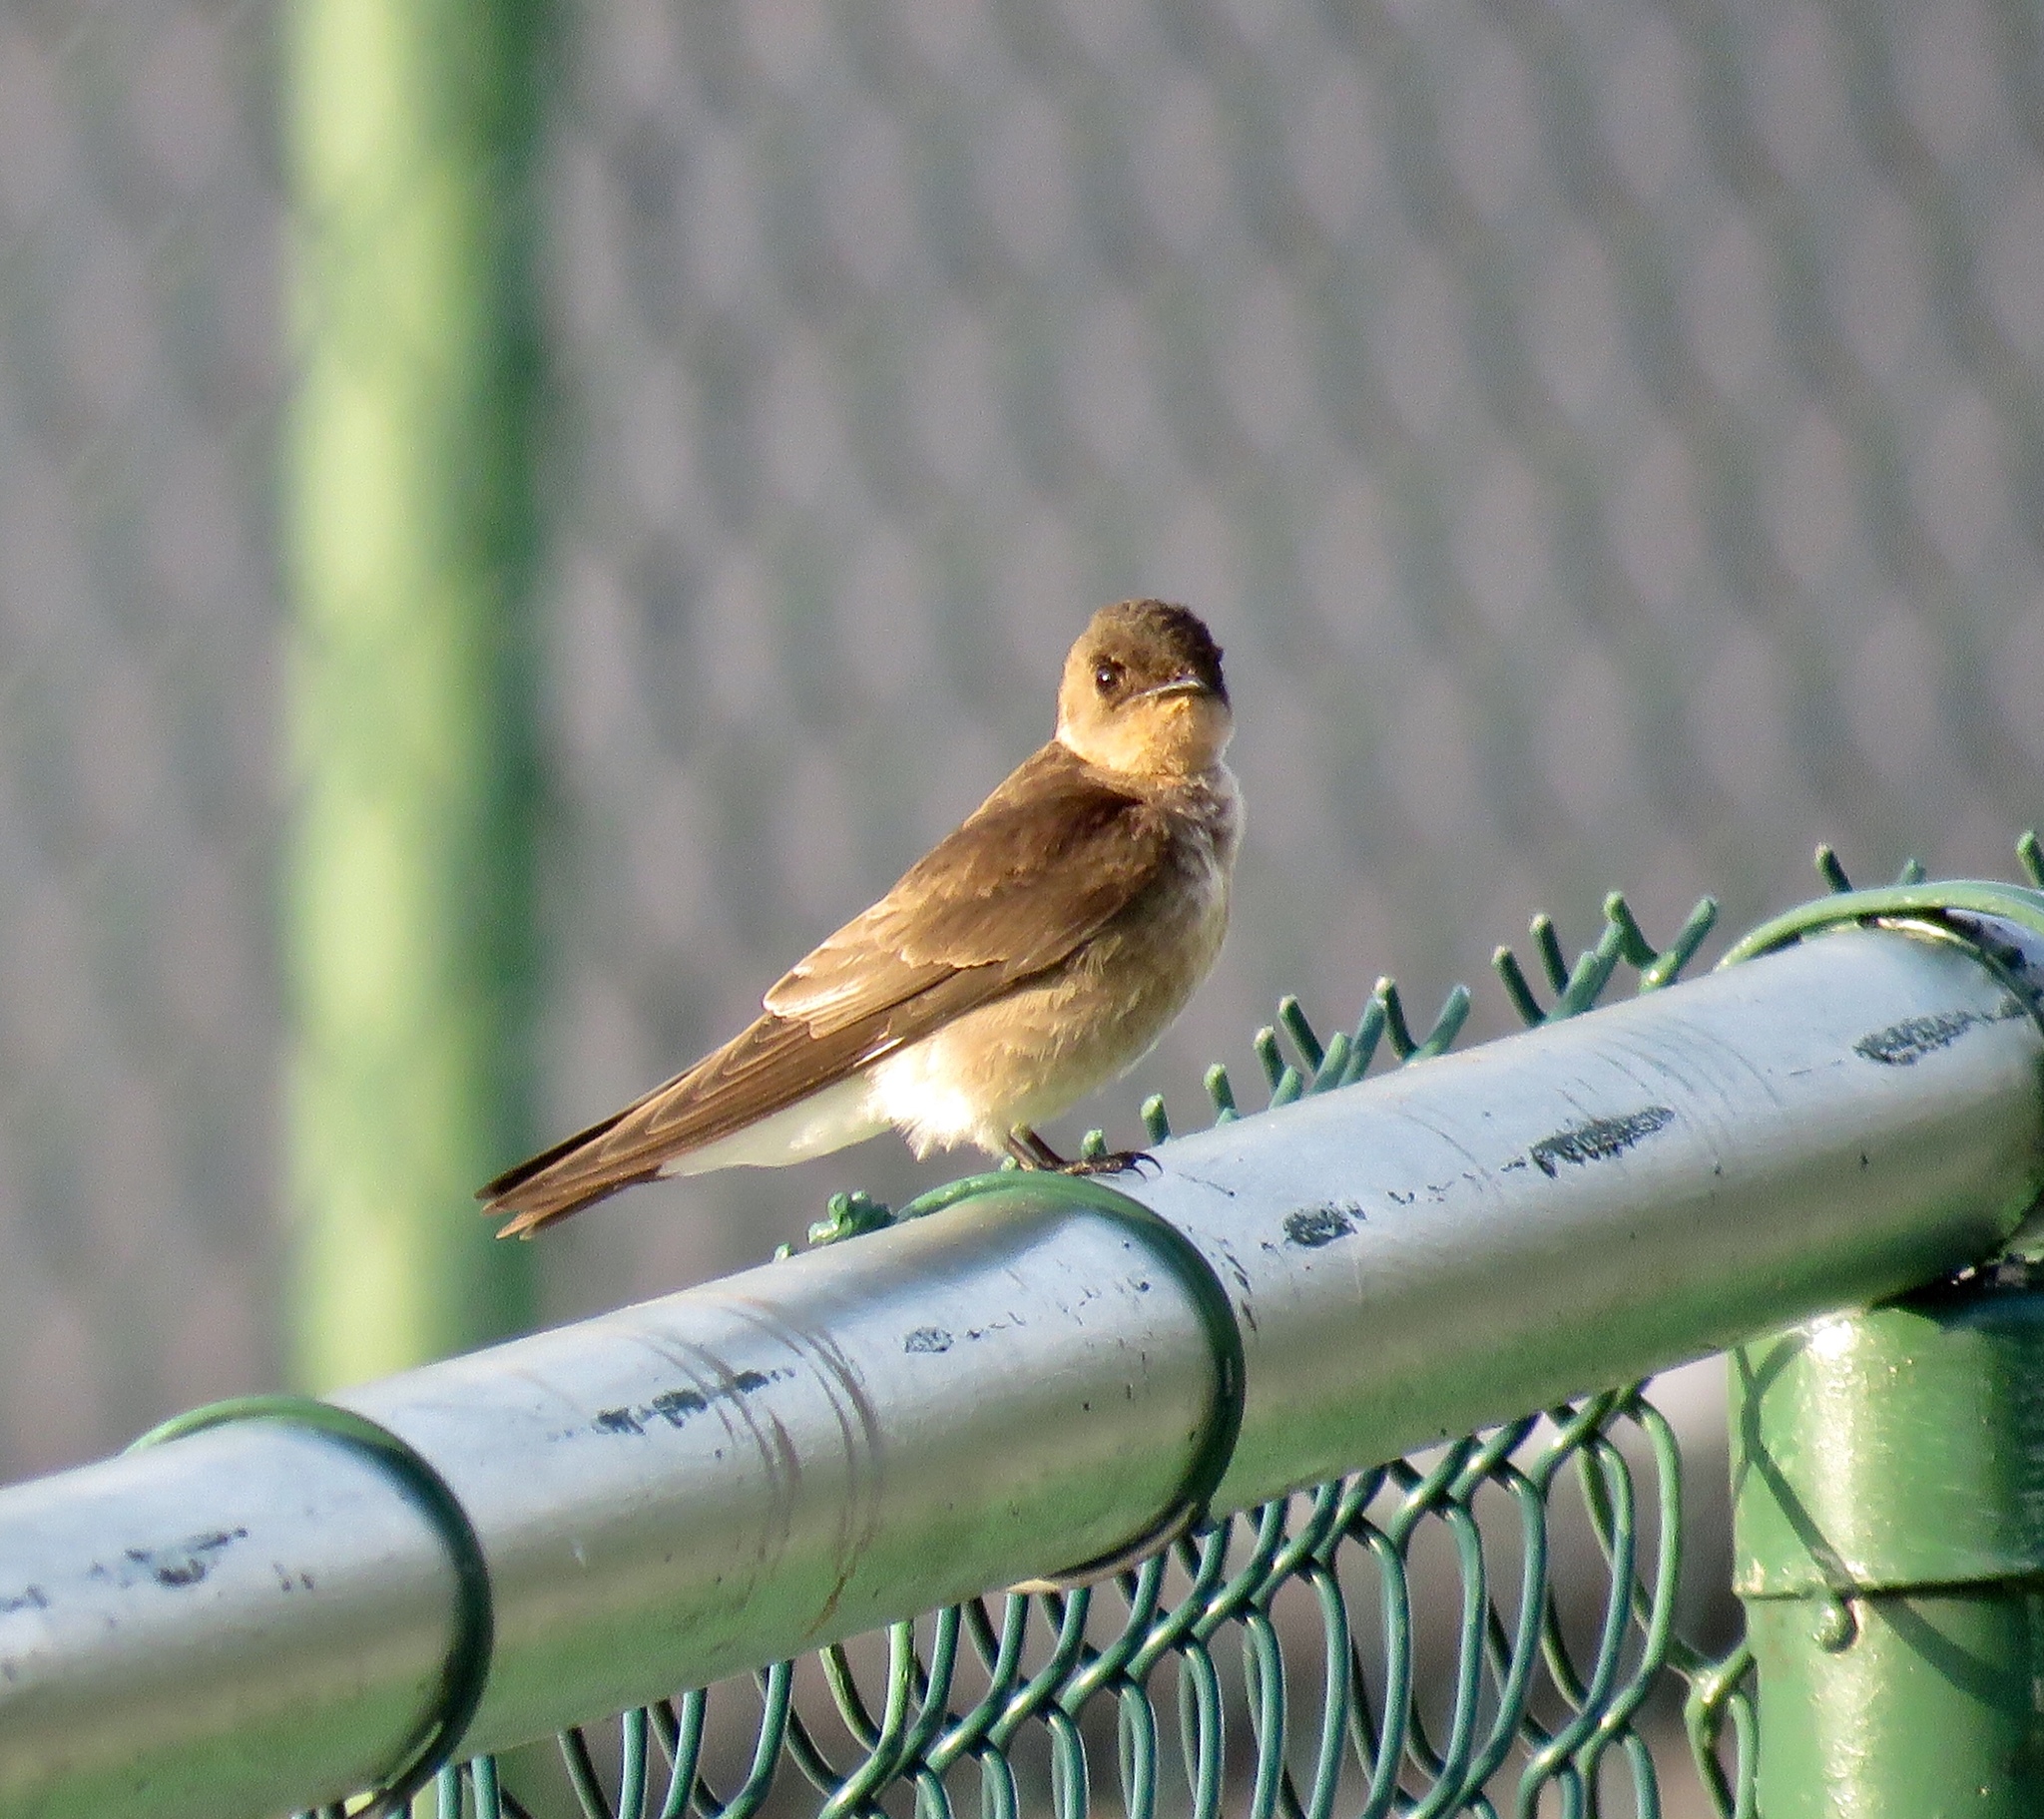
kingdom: Animalia
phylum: Chordata
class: Aves
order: Passeriformes
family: Hirundinidae
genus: Stelgidopteryx
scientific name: Stelgidopteryx ruficollis
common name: Southern rough-winged swallow
